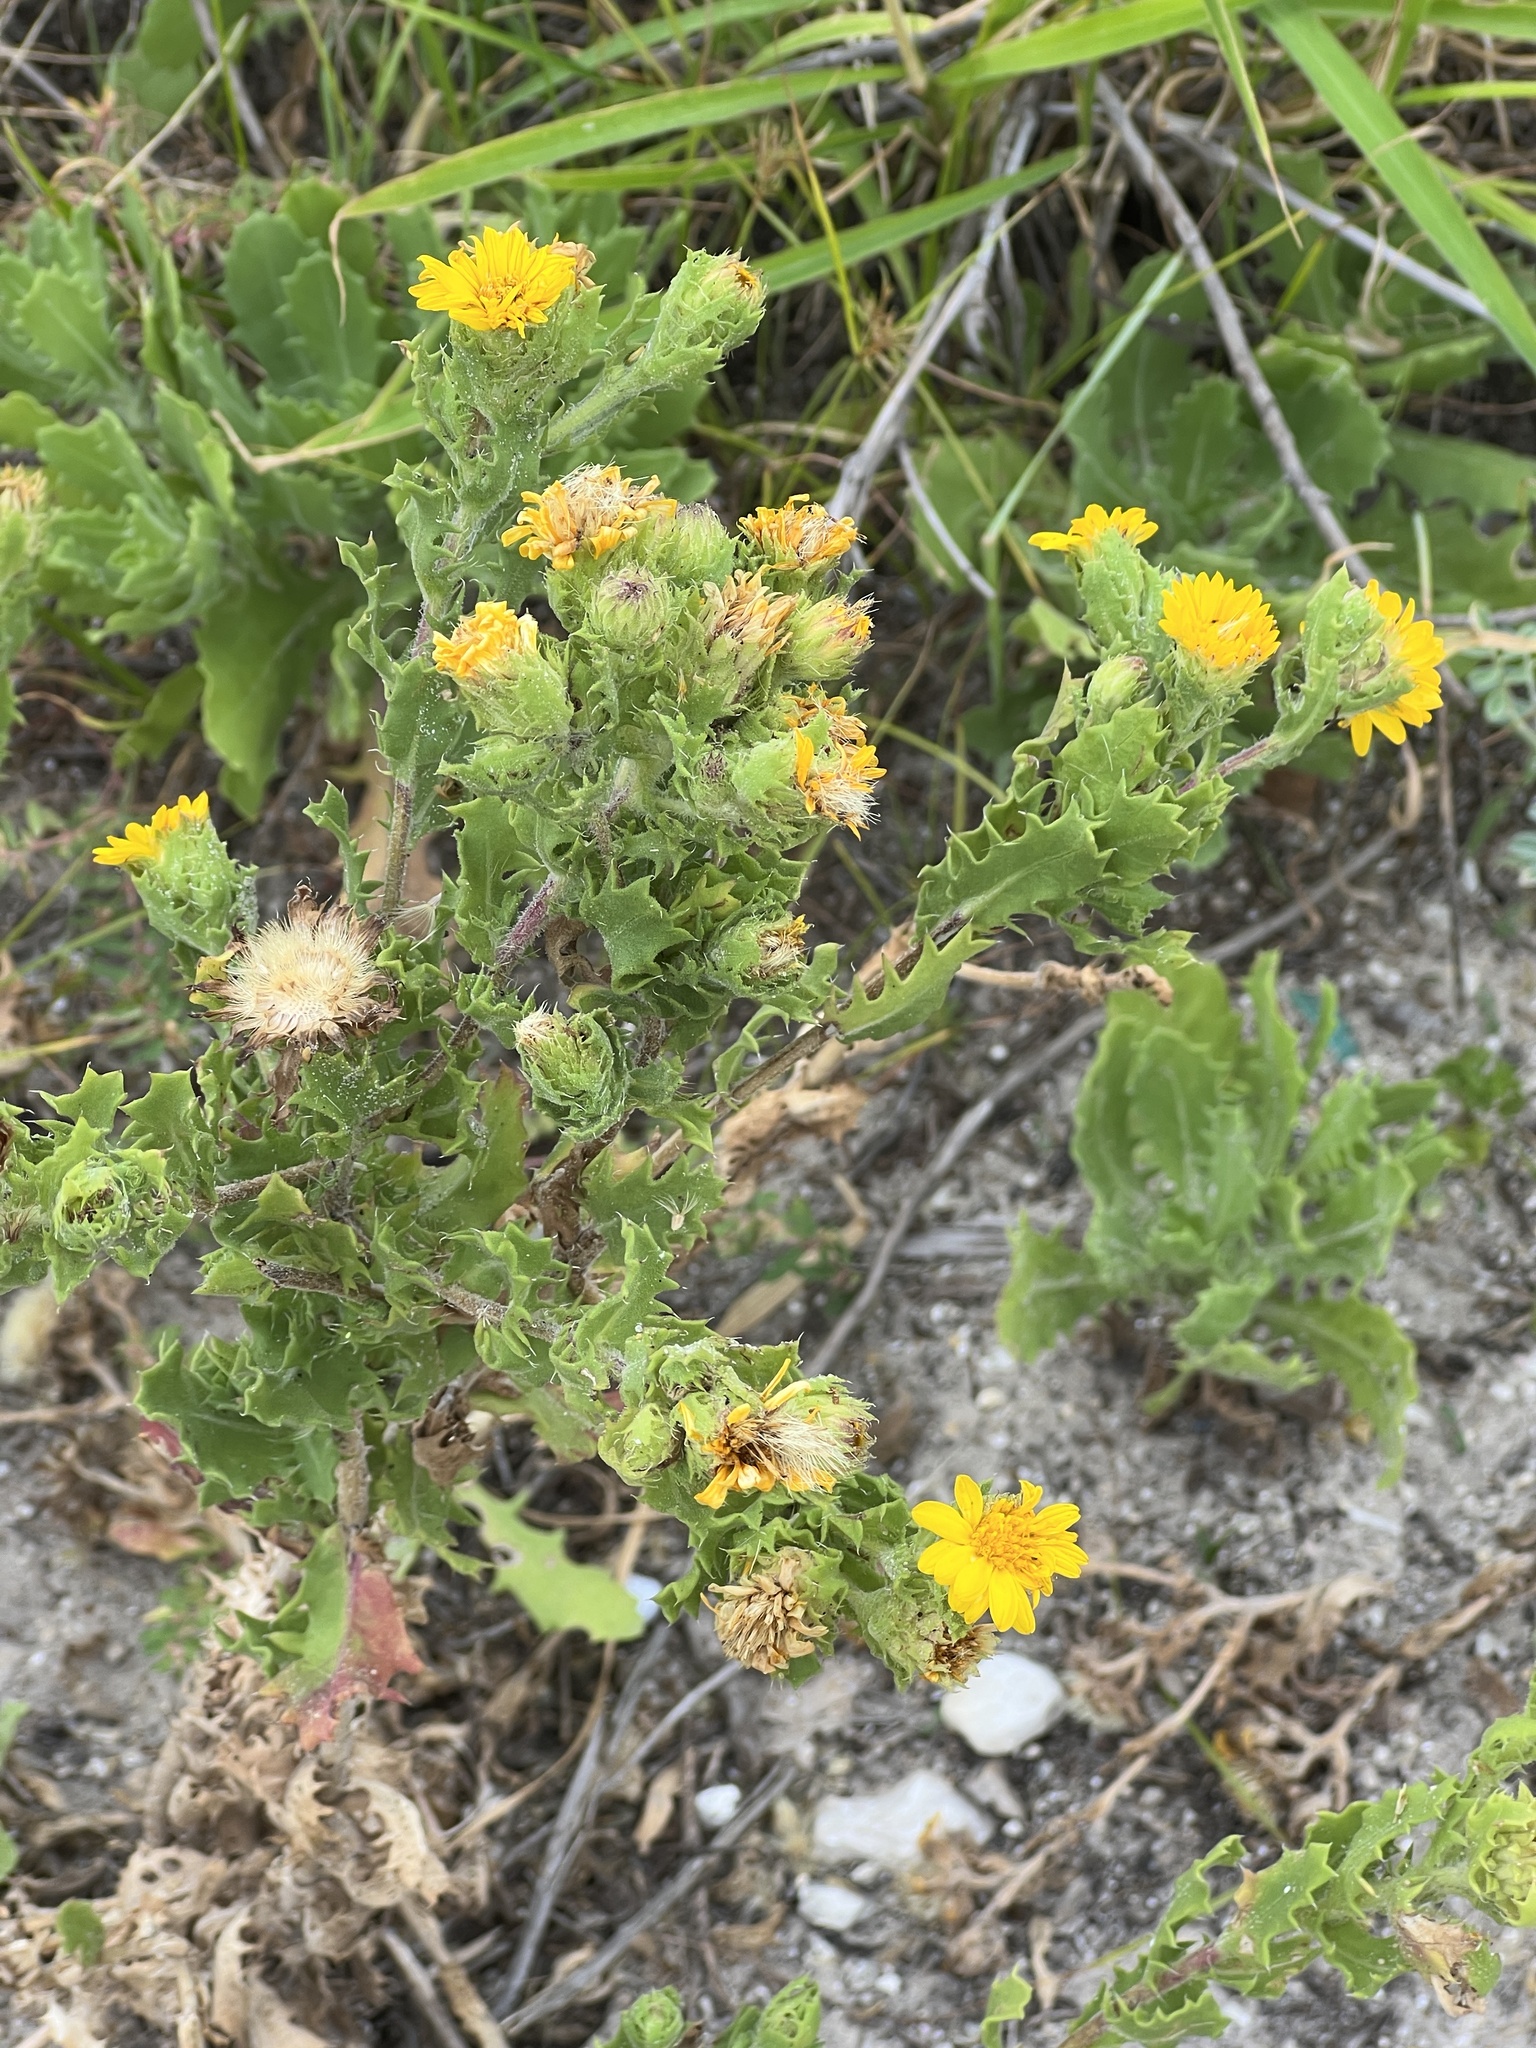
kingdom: Plantae
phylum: Tracheophyta
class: Magnoliopsida
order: Asterales
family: Asteraceae
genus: Rayjacksonia
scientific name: Rayjacksonia phyllocephala
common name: Gulf coast camphor daisy
